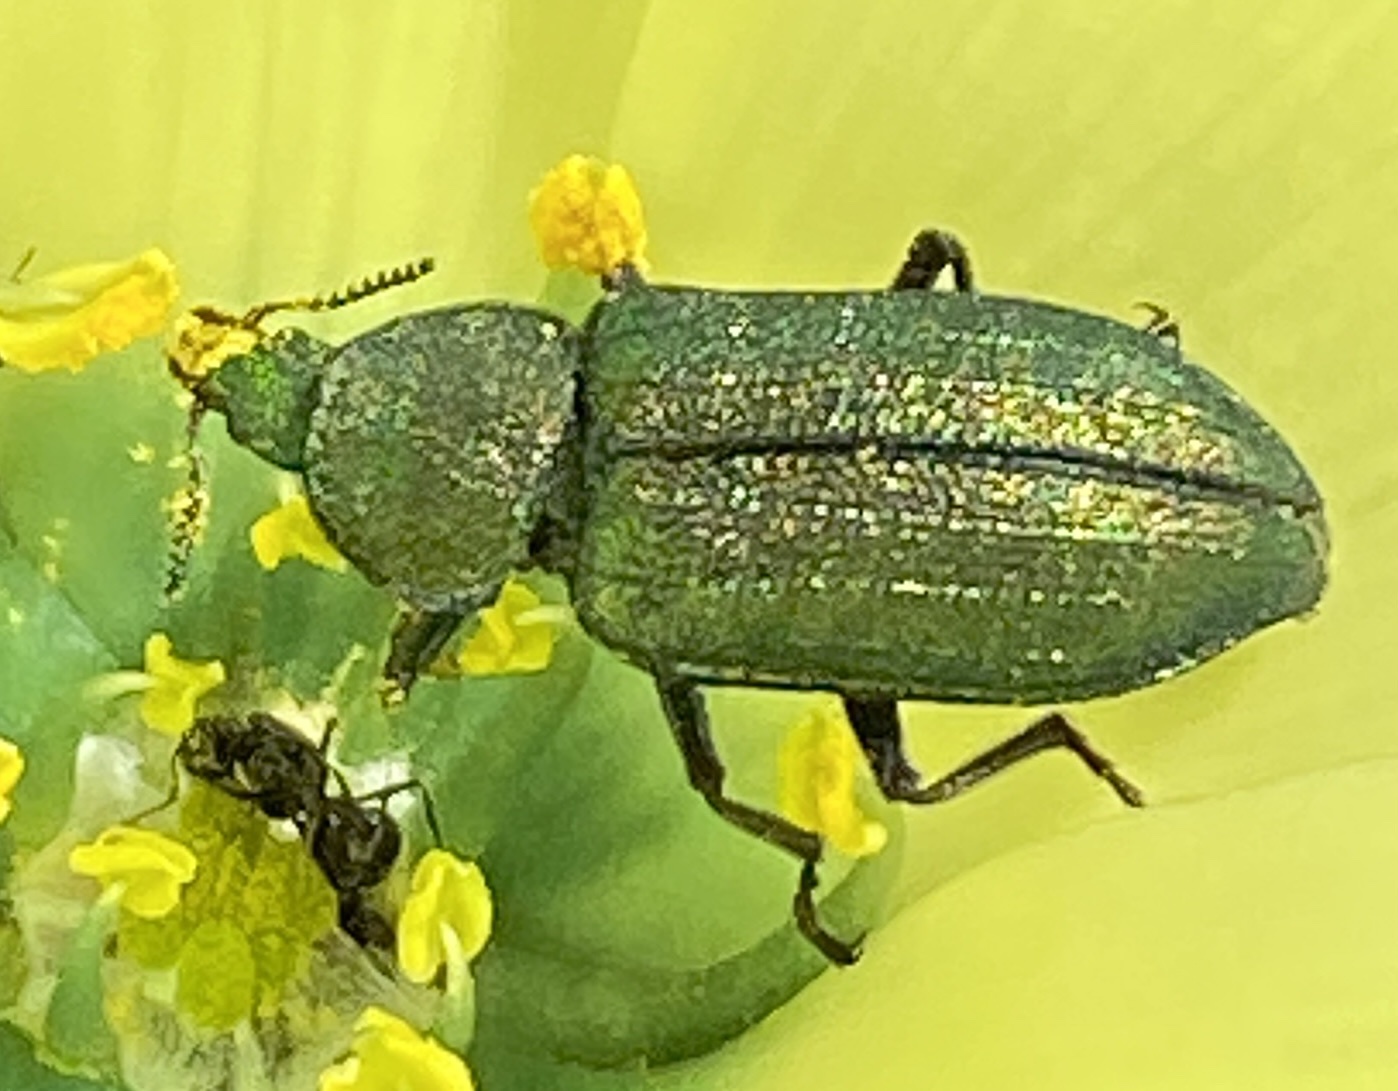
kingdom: Animalia
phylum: Arthropoda
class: Insecta
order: Coleoptera
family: Melyridae
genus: Melyris
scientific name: Melyris viridis
